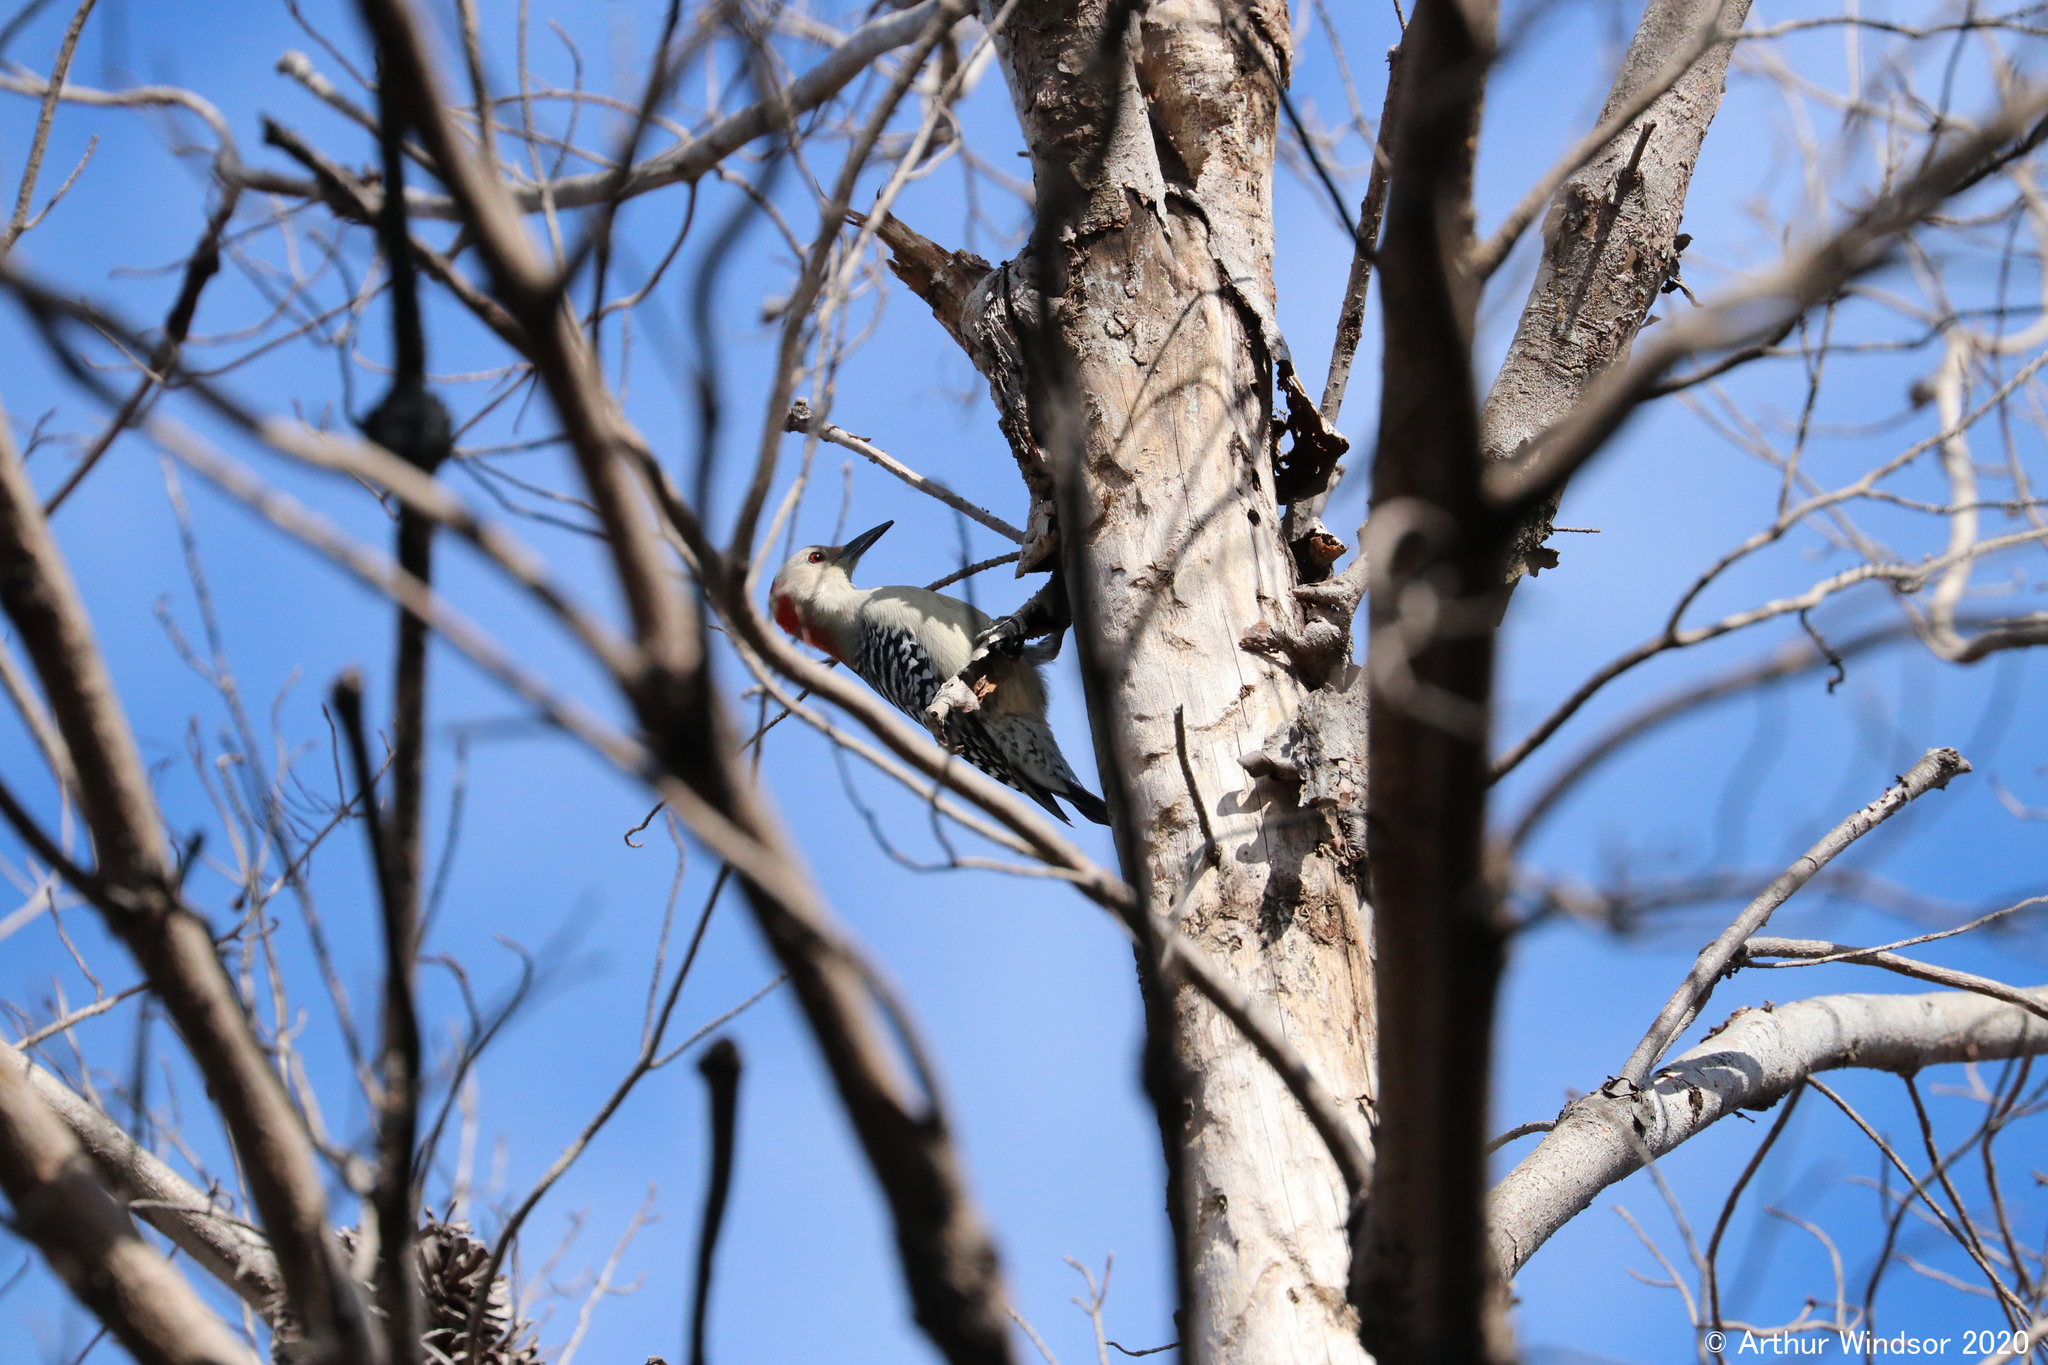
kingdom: Animalia
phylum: Chordata
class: Aves
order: Piciformes
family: Picidae
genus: Melanerpes
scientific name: Melanerpes carolinus
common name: Red-bellied woodpecker
